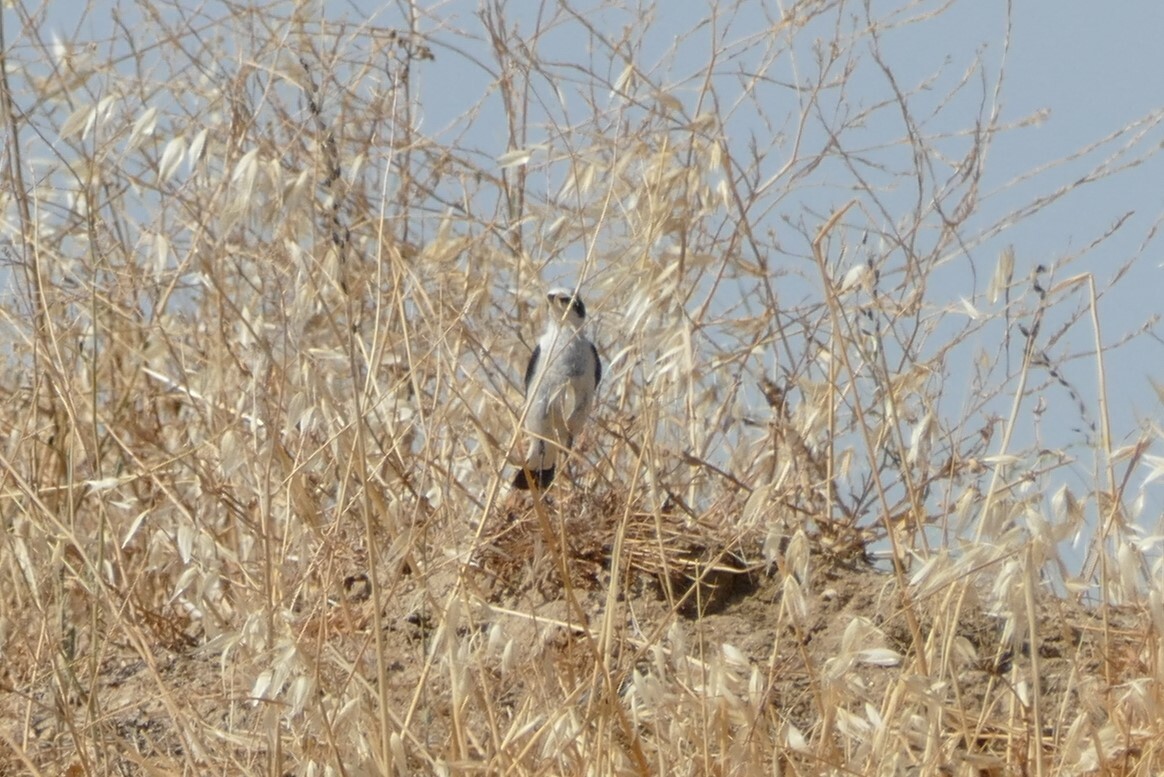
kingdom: Animalia
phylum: Chordata
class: Aves
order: Passeriformes
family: Muscicapidae
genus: Oenanthe
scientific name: Oenanthe oenanthe
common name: Northern wheatear
